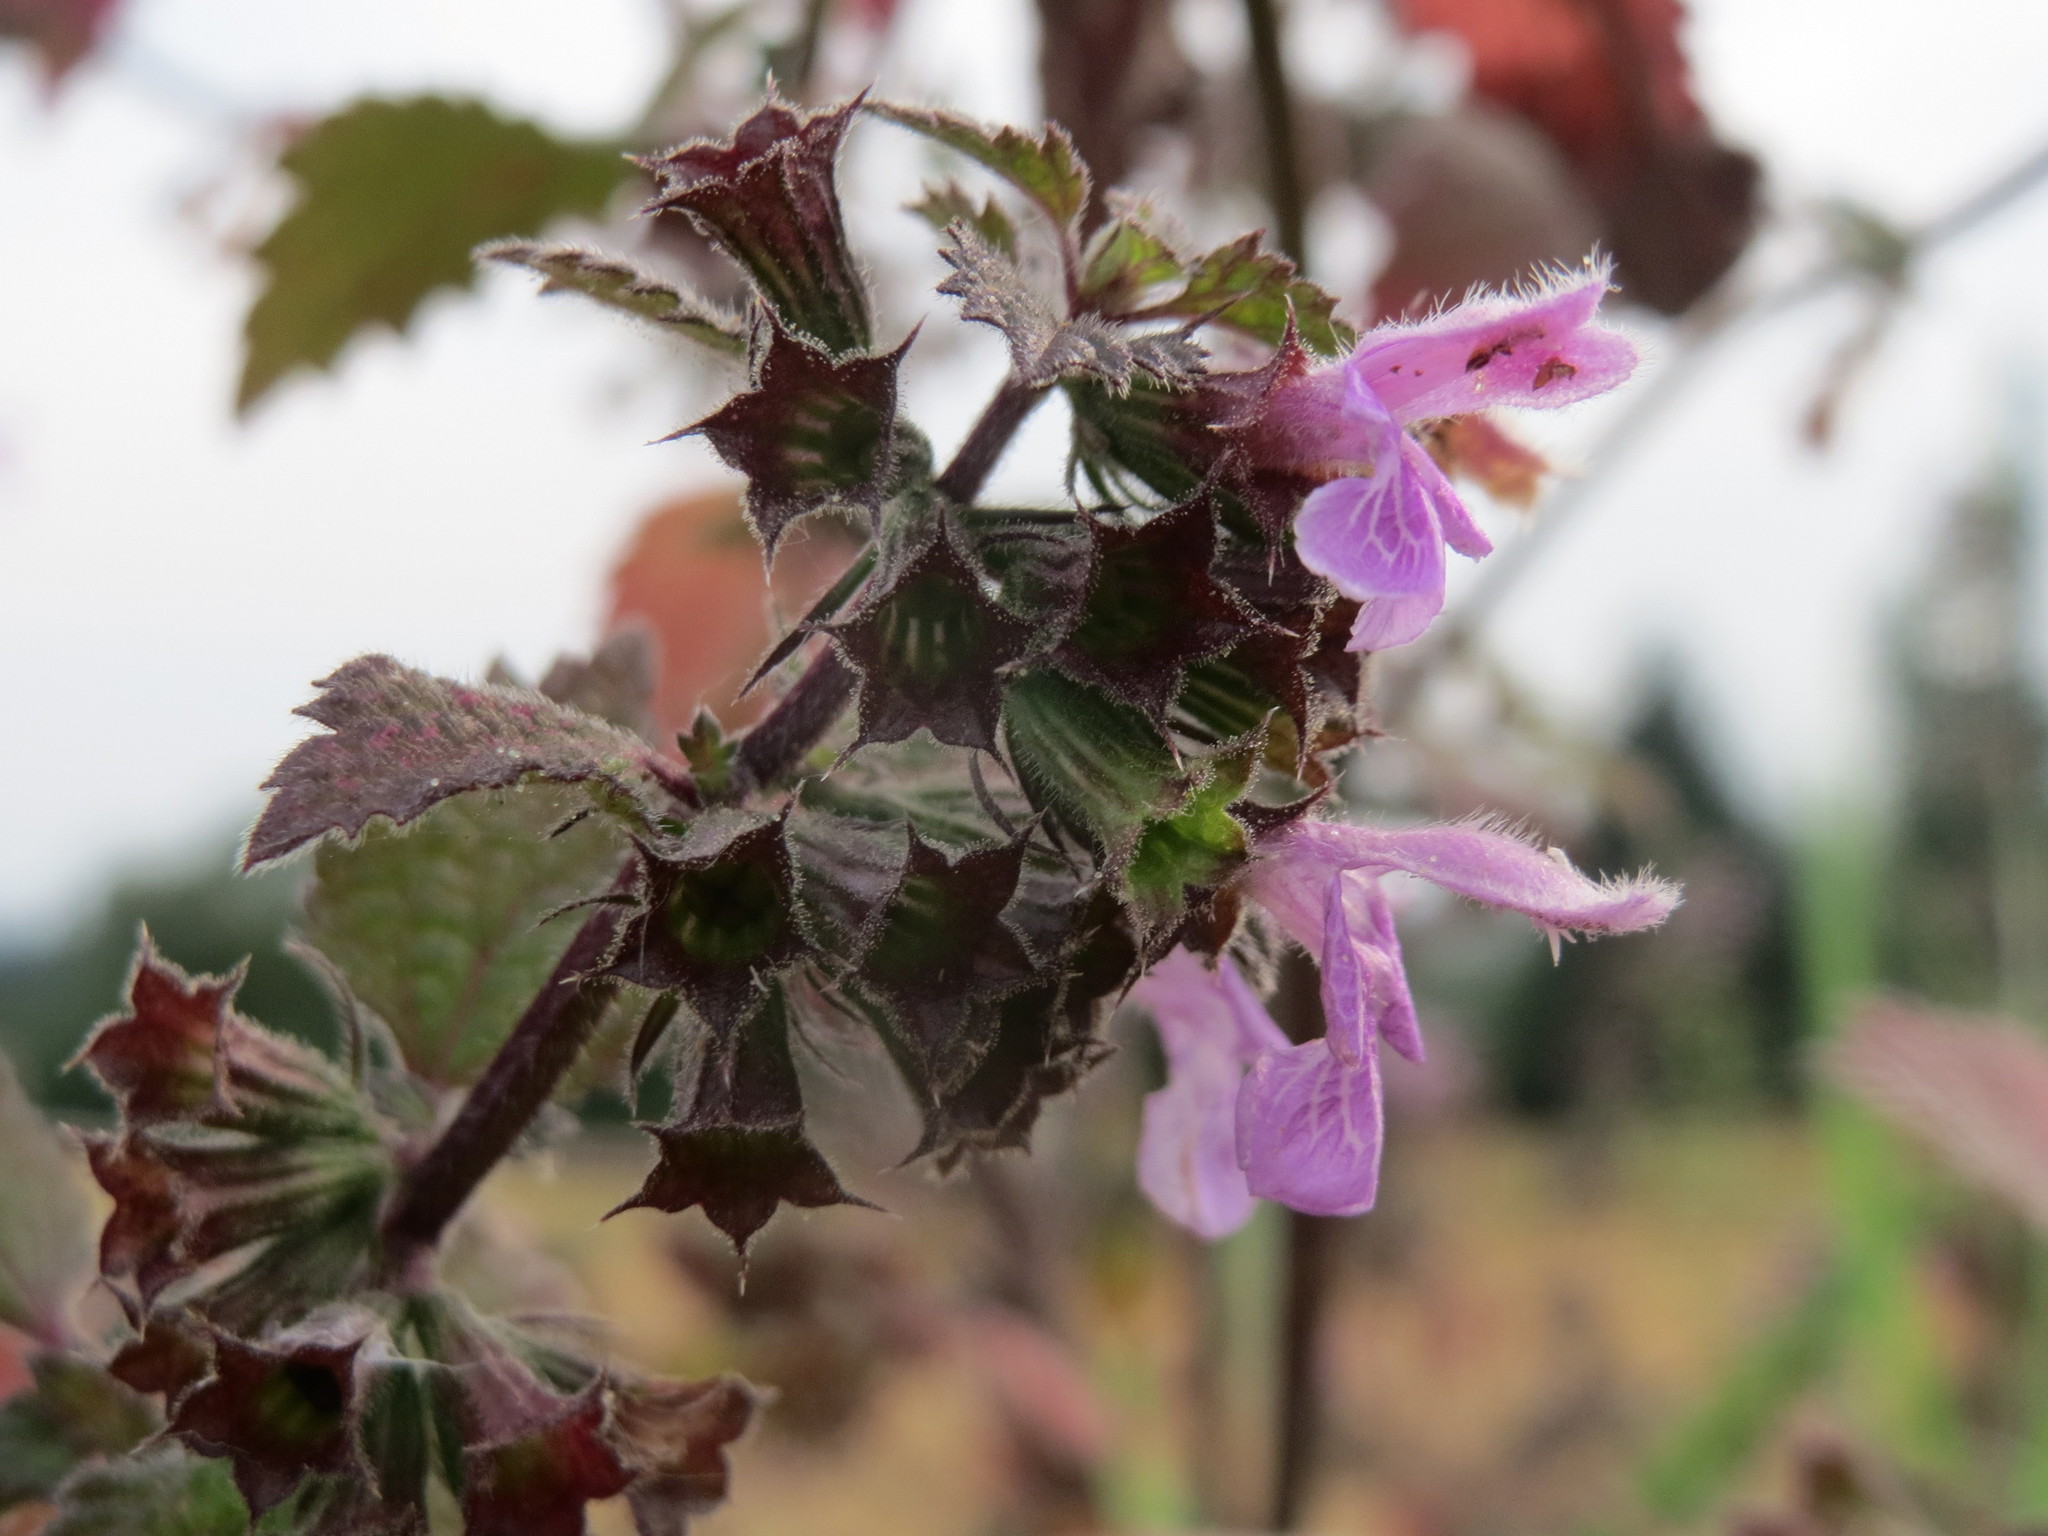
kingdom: Plantae
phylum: Tracheophyta
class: Magnoliopsida
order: Lamiales
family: Lamiaceae
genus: Ballota
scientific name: Ballota nigra
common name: Black horehound
